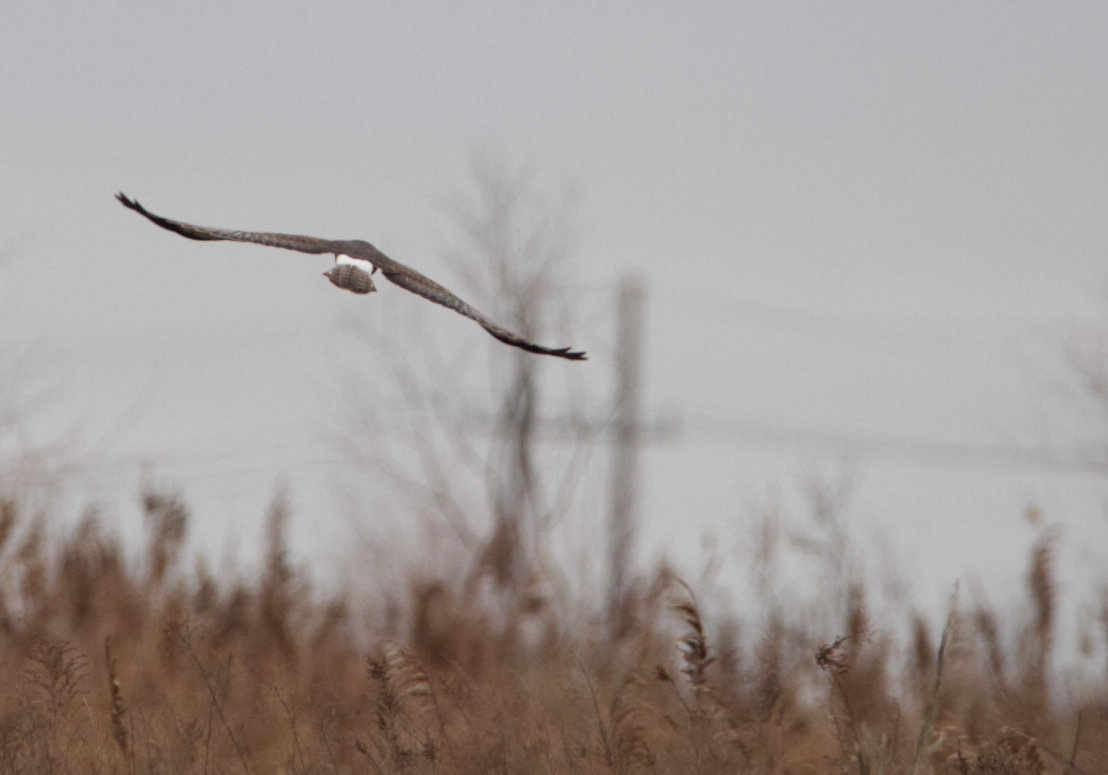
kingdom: Animalia
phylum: Chordata
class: Aves
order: Accipitriformes
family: Accipitridae
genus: Circus
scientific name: Circus cyaneus
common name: Hen harrier
